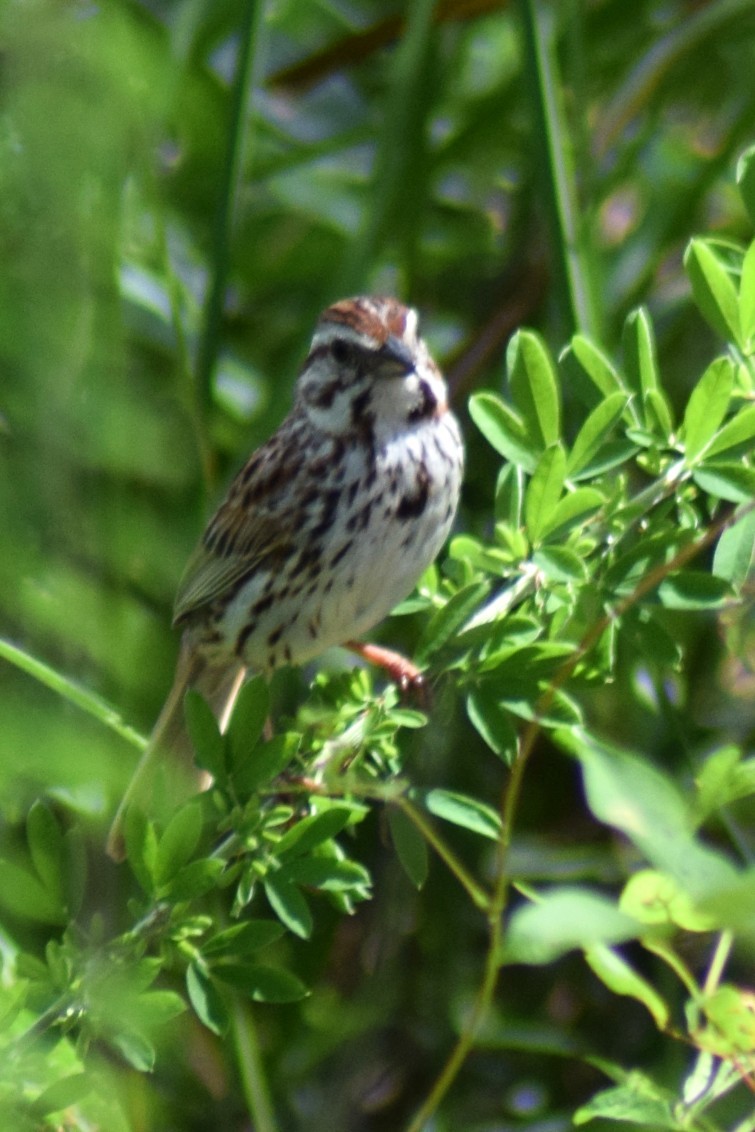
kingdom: Animalia
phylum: Chordata
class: Aves
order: Passeriformes
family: Passerellidae
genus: Melospiza
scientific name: Melospiza melodia
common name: Song sparrow
